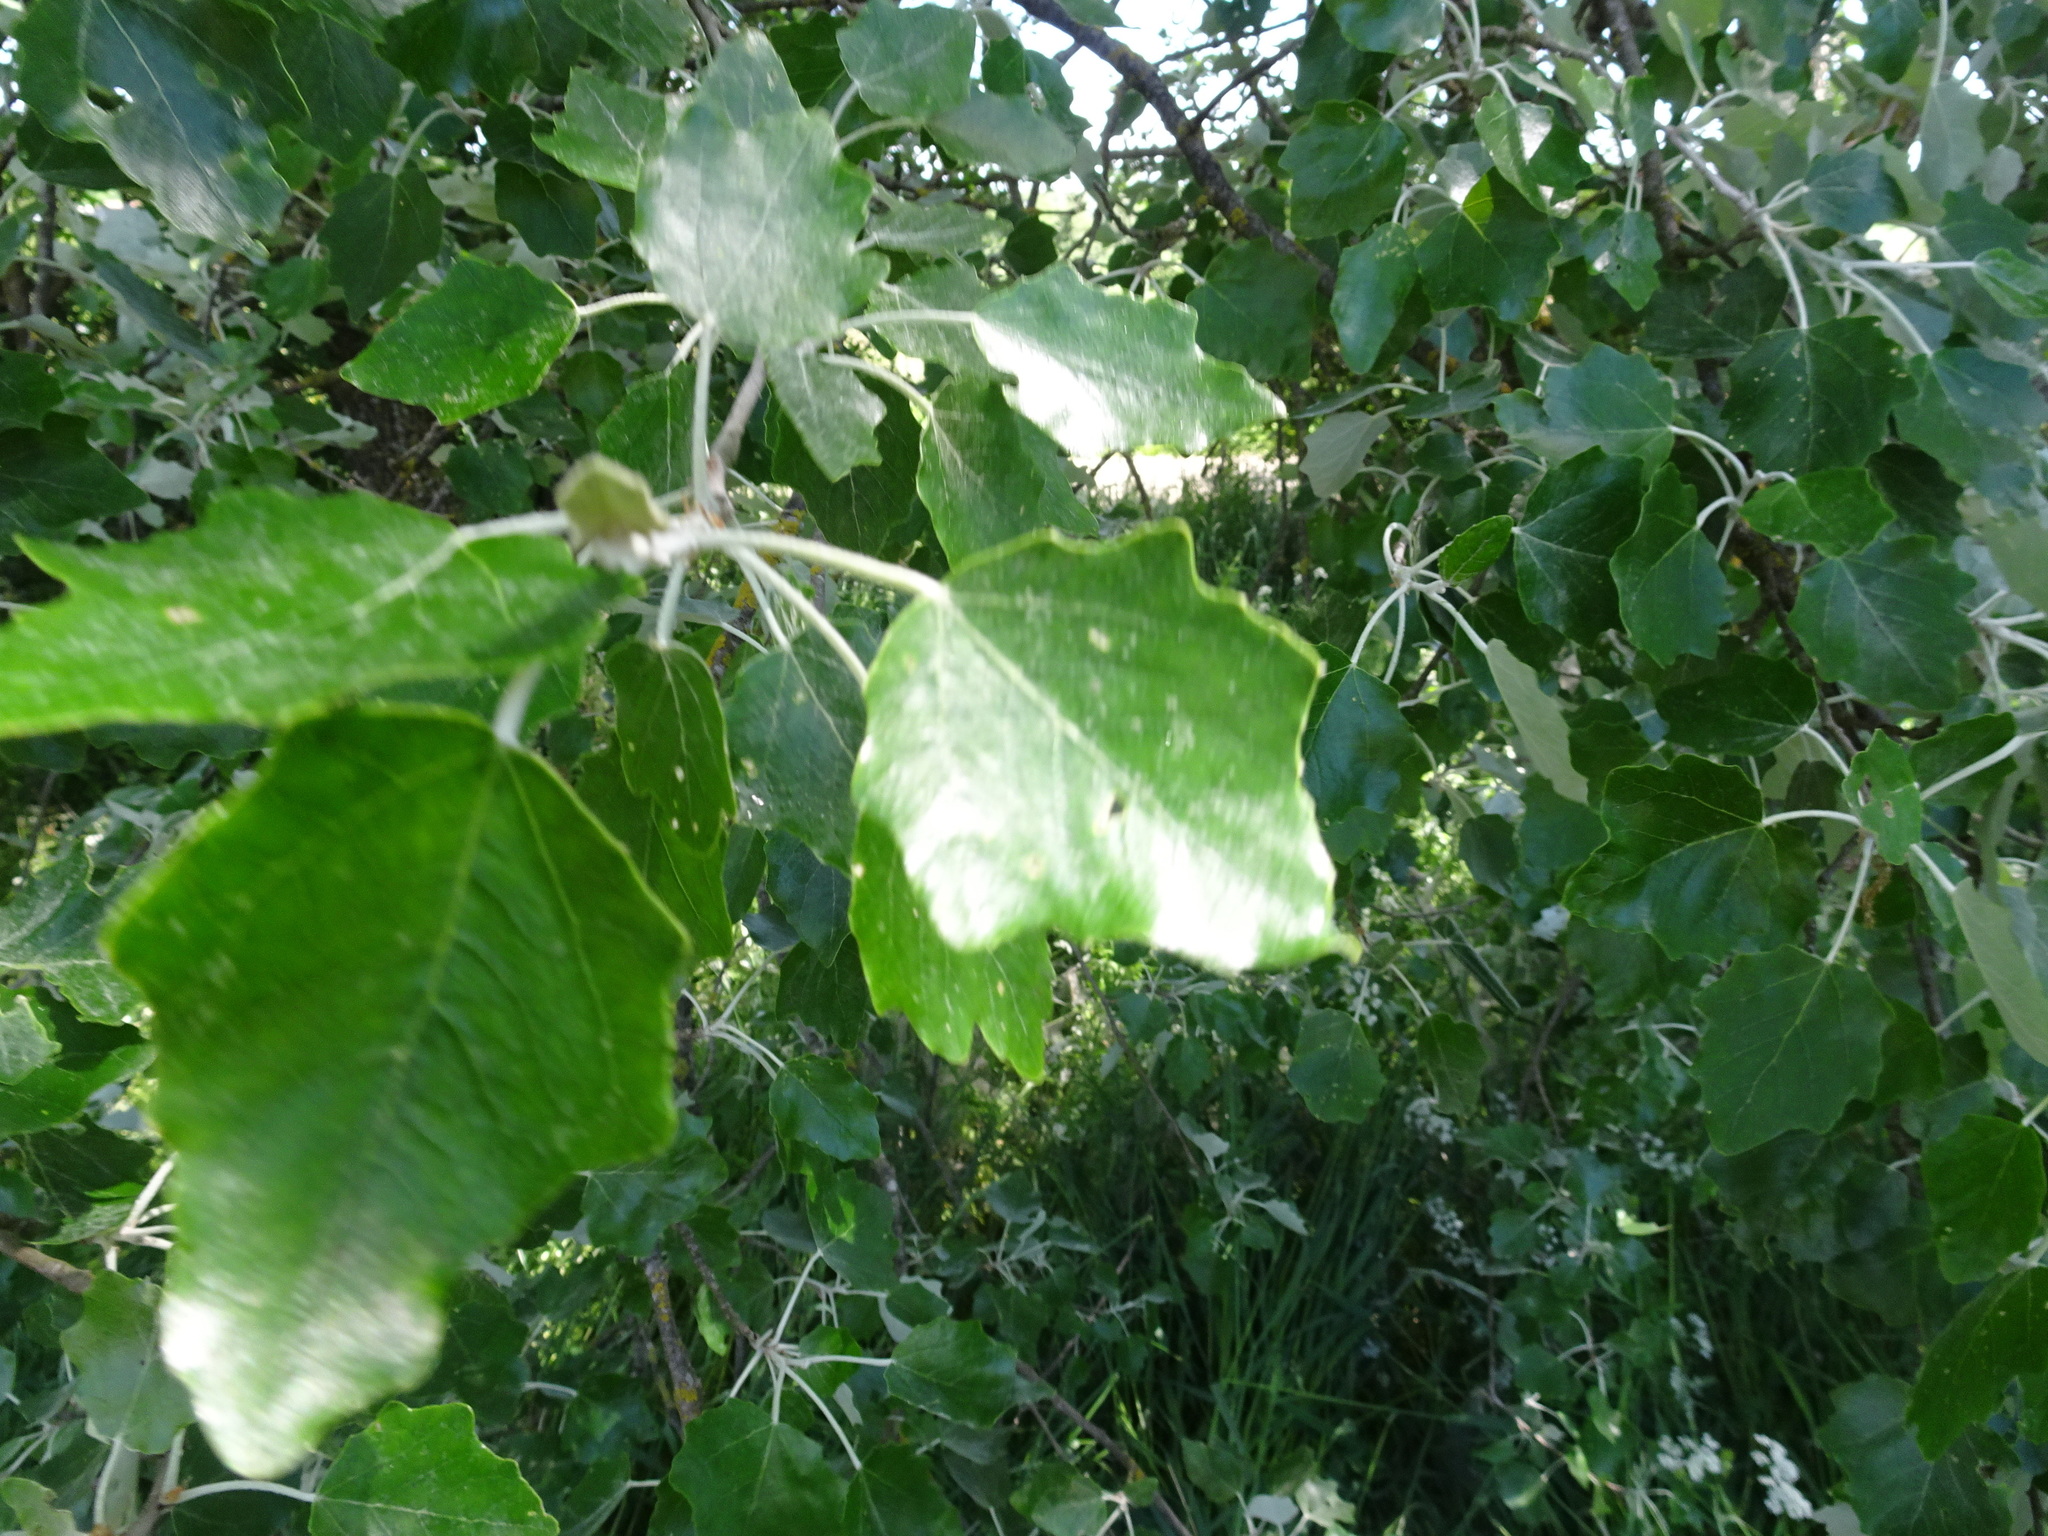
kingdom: Plantae
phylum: Tracheophyta
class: Magnoliopsida
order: Malpighiales
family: Salicaceae
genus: Populus
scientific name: Populus alba
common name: White poplar
